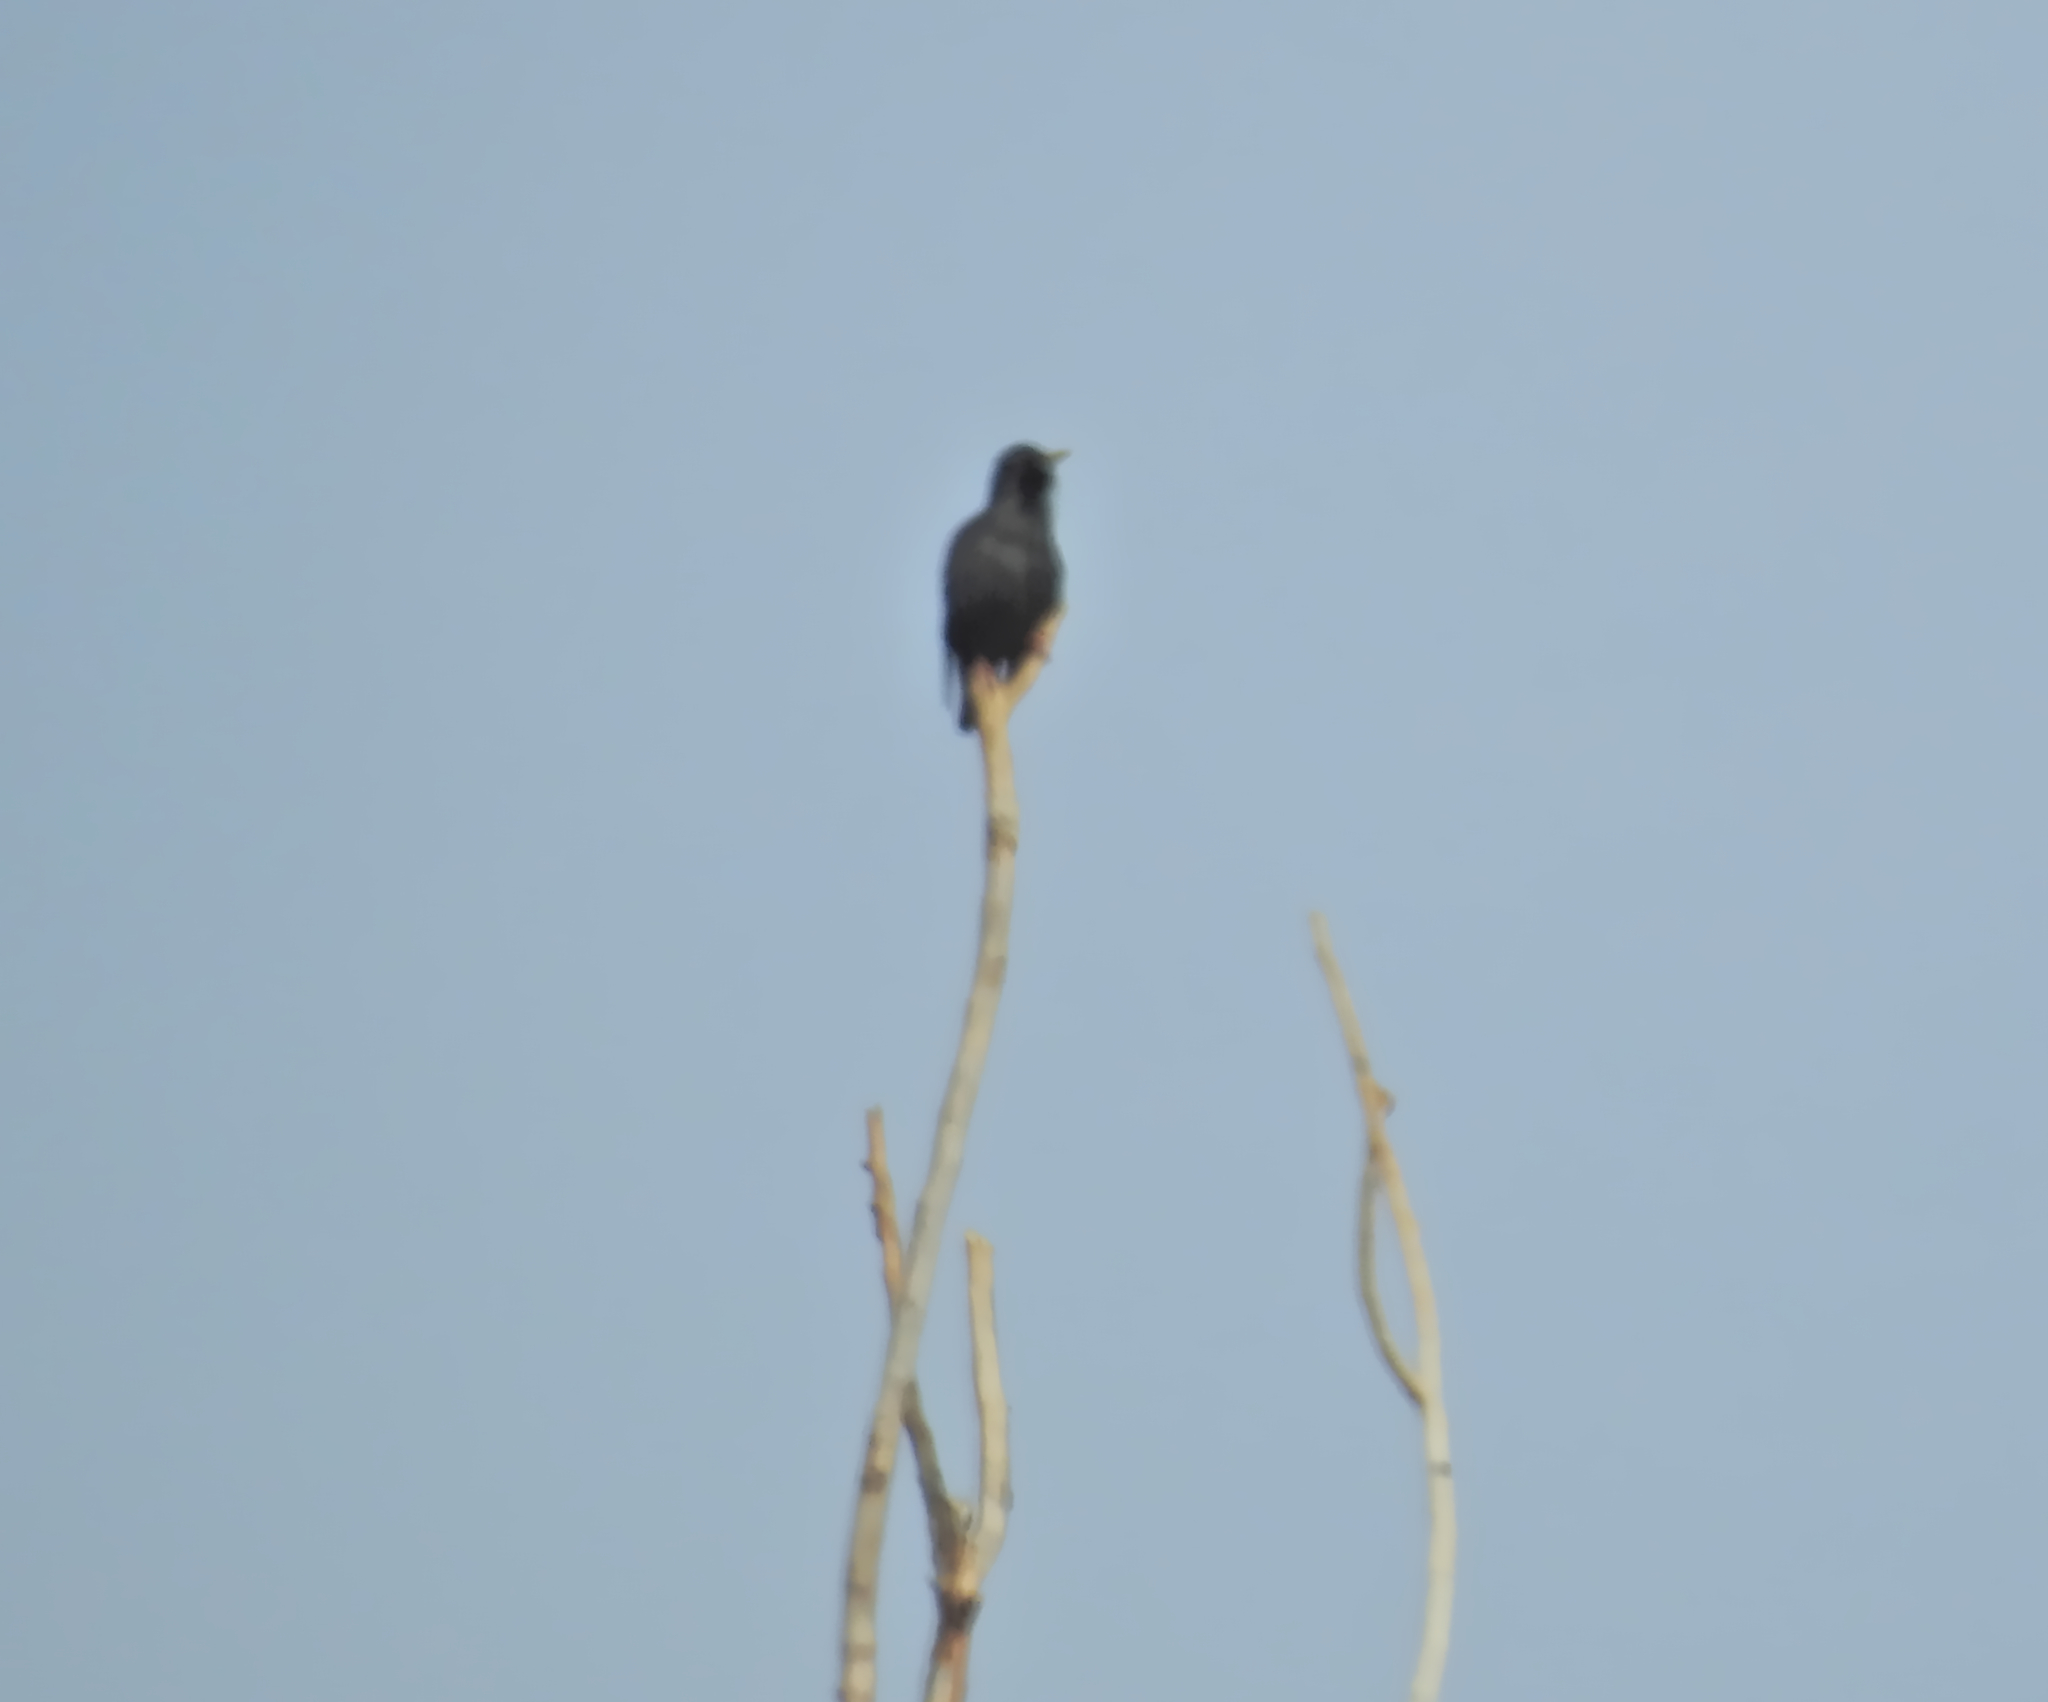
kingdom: Animalia
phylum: Chordata
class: Aves
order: Passeriformes
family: Sturnidae
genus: Sturnus
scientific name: Sturnus unicolor
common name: Spotless starling
